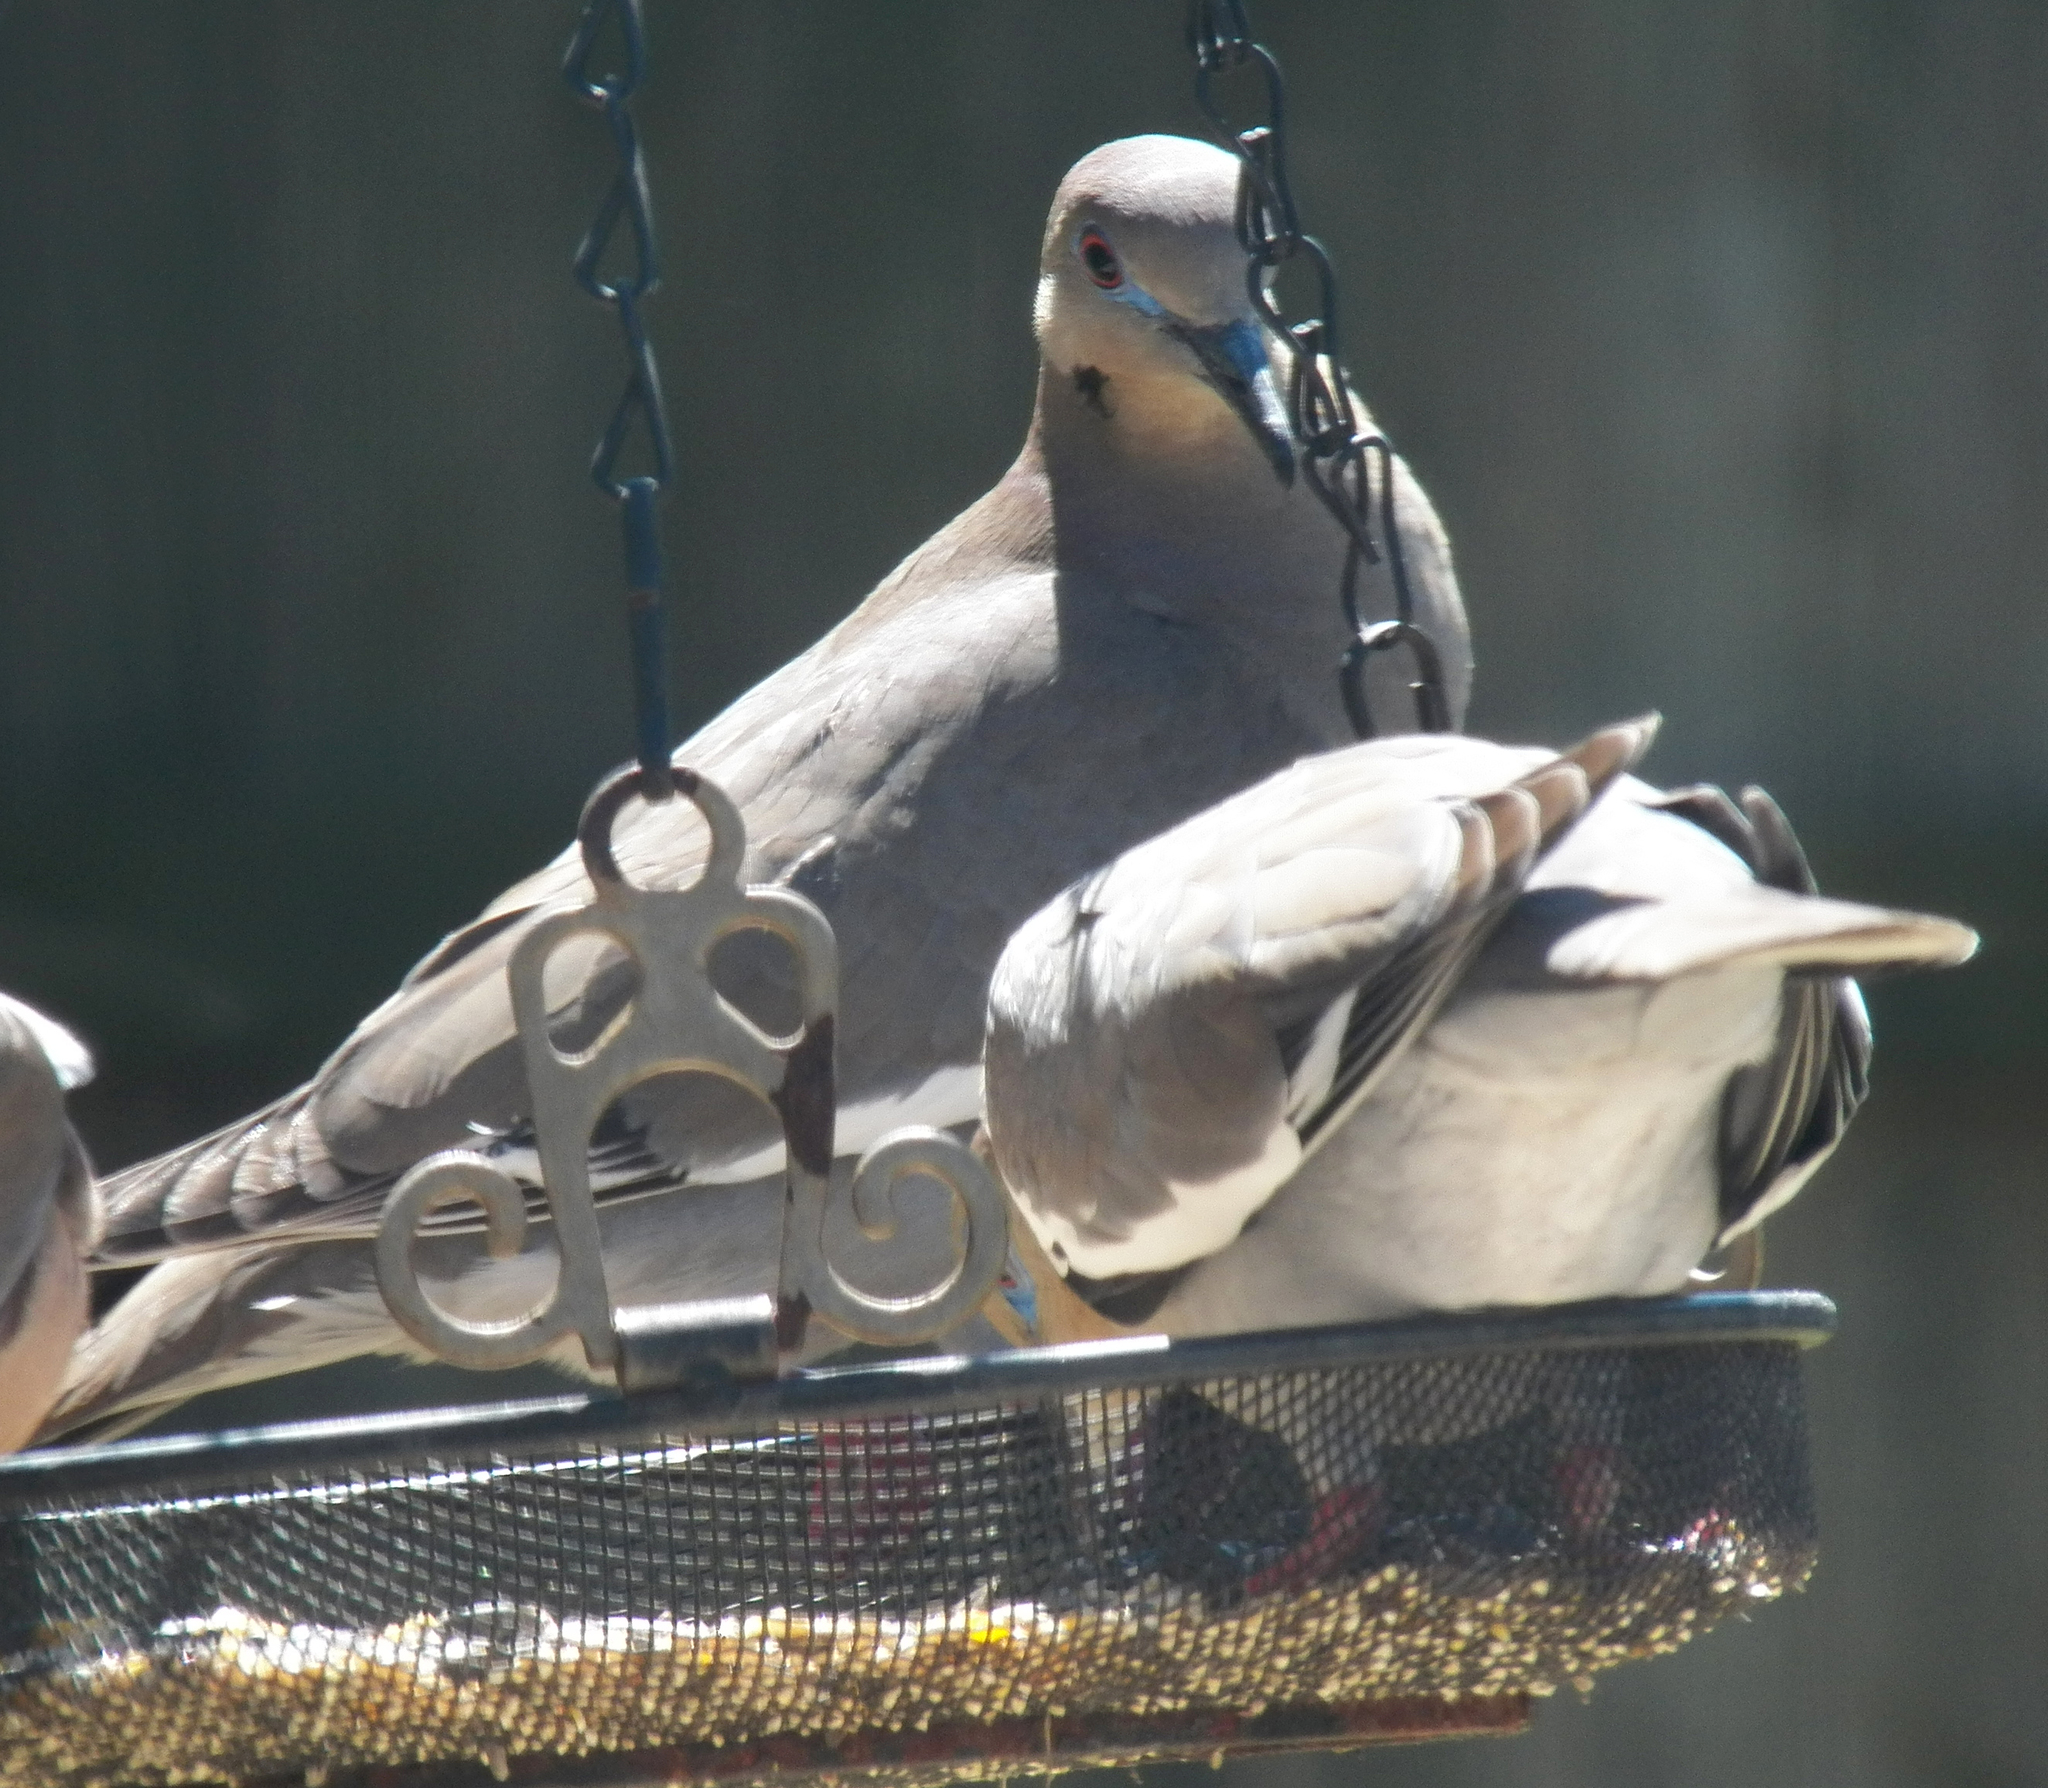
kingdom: Animalia
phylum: Chordata
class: Aves
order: Columbiformes
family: Columbidae
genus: Zenaida
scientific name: Zenaida asiatica
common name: White-winged dove
